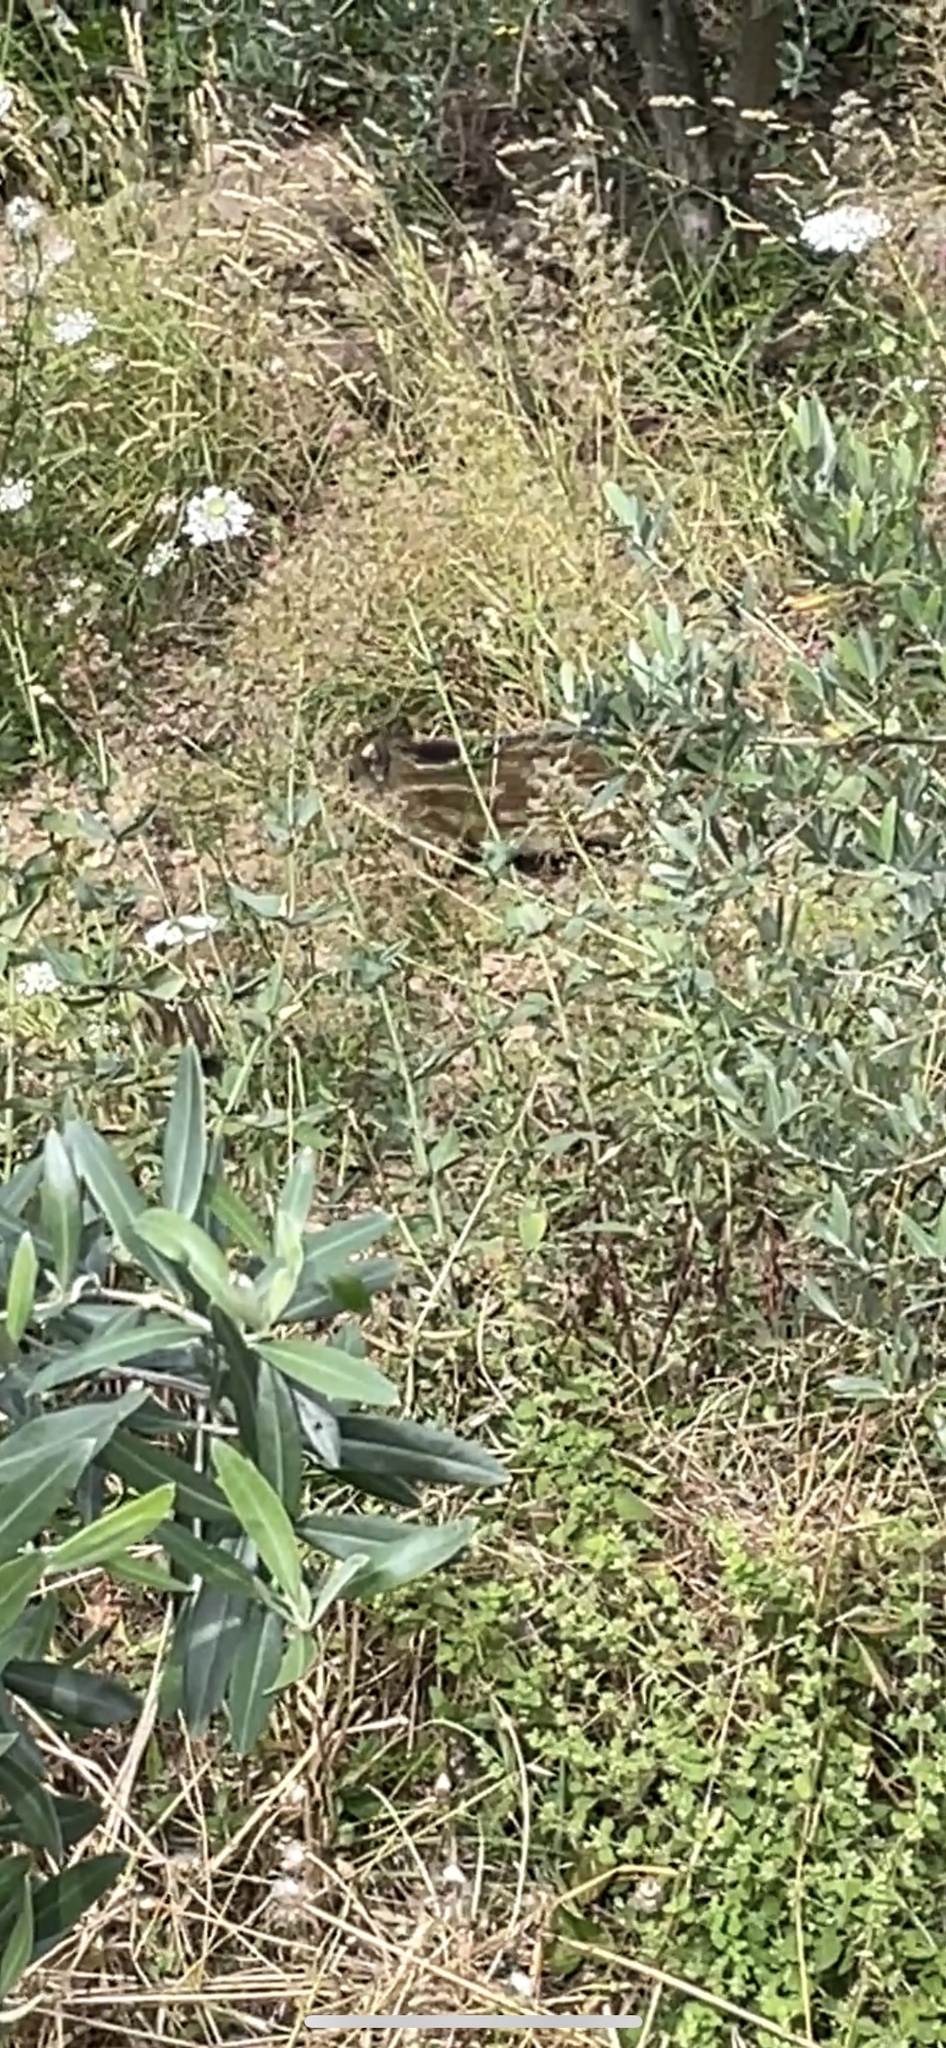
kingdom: Animalia
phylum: Chordata
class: Mammalia
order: Artiodactyla
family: Suidae
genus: Sus
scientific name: Sus scrofa
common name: Wild boar
